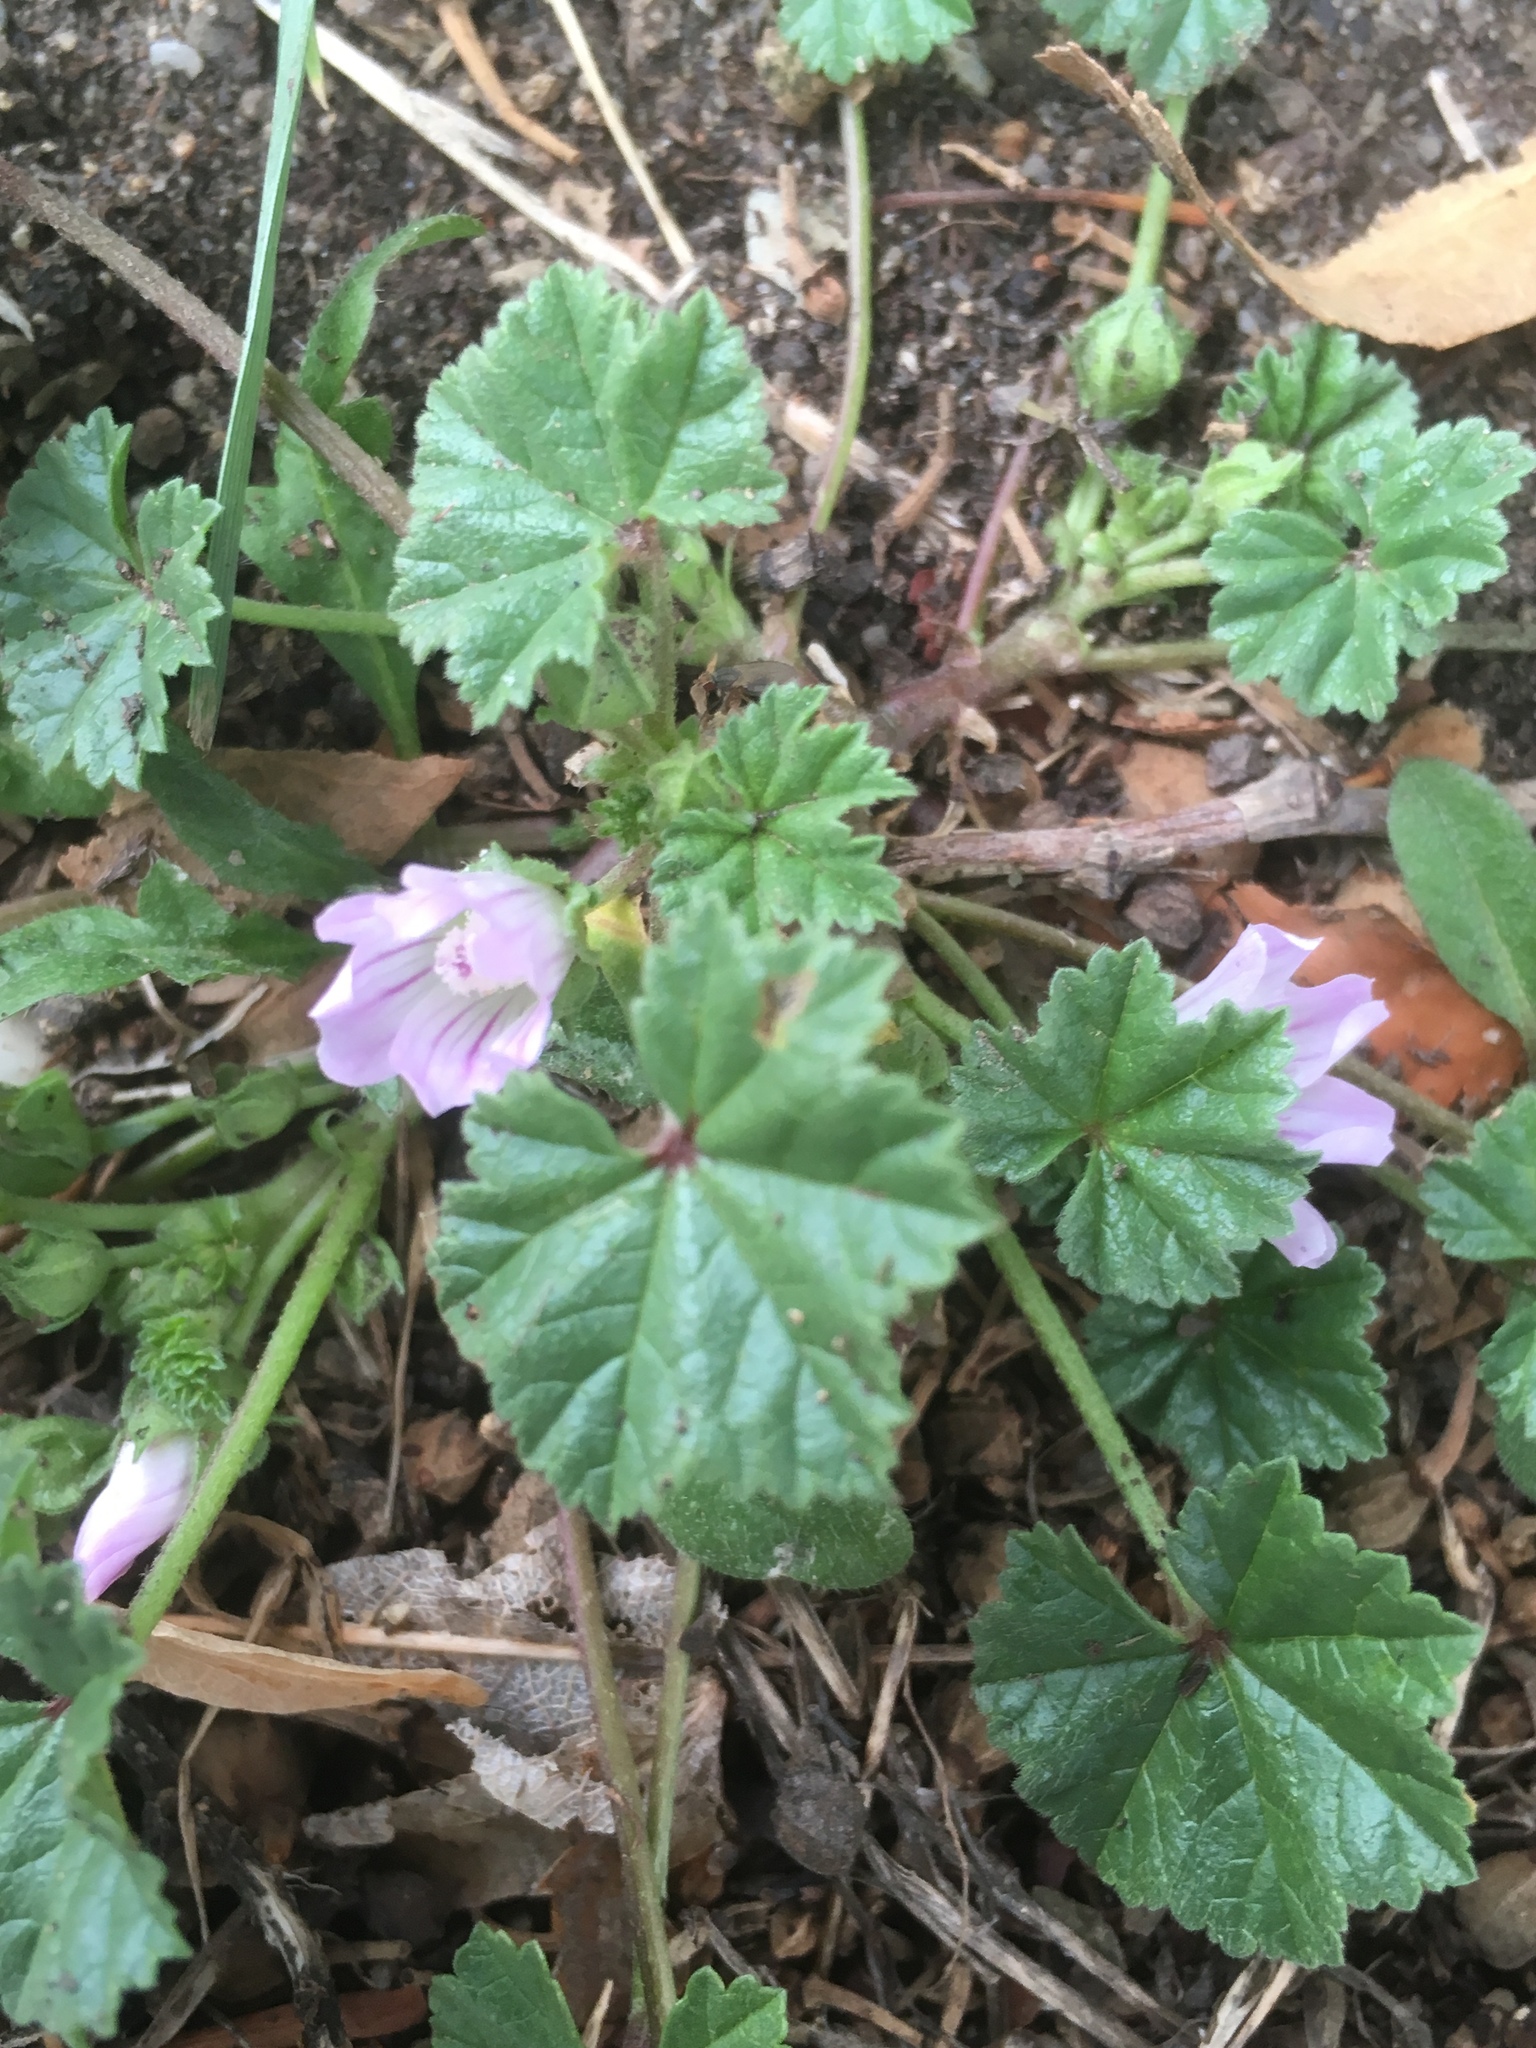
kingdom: Plantae
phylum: Tracheophyta
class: Magnoliopsida
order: Malvales
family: Malvaceae
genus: Malva
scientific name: Malva neglecta
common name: Common mallow
